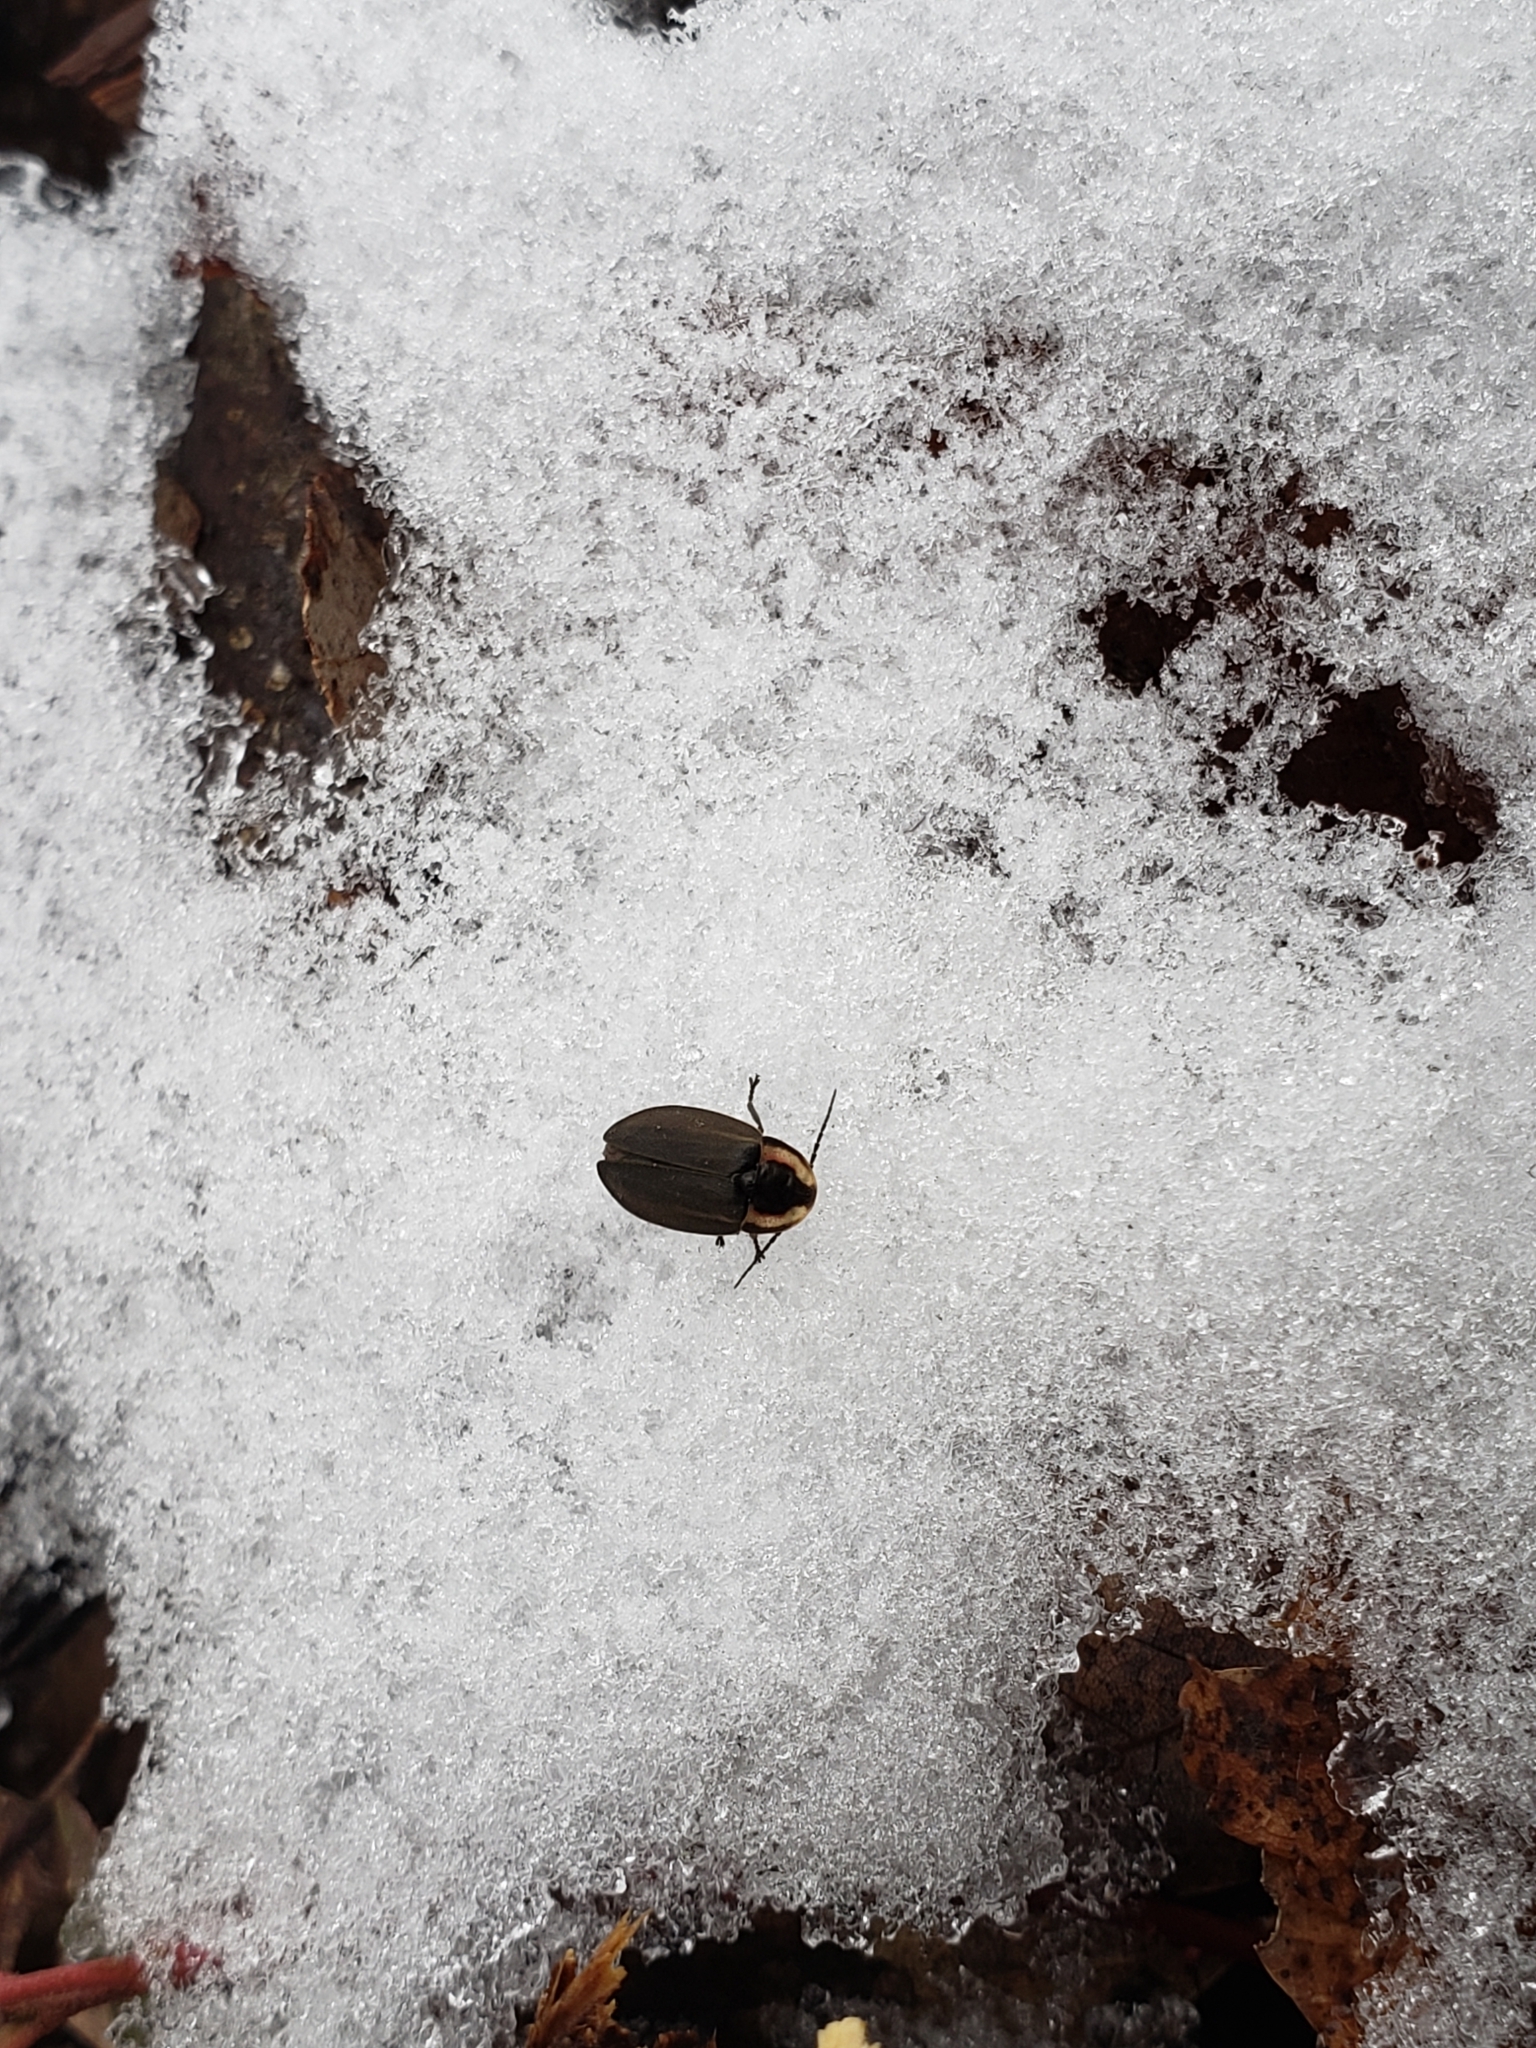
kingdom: Animalia
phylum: Arthropoda
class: Insecta
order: Coleoptera
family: Lampyridae
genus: Photinus
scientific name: Photinus corrusca
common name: Winter firefly
